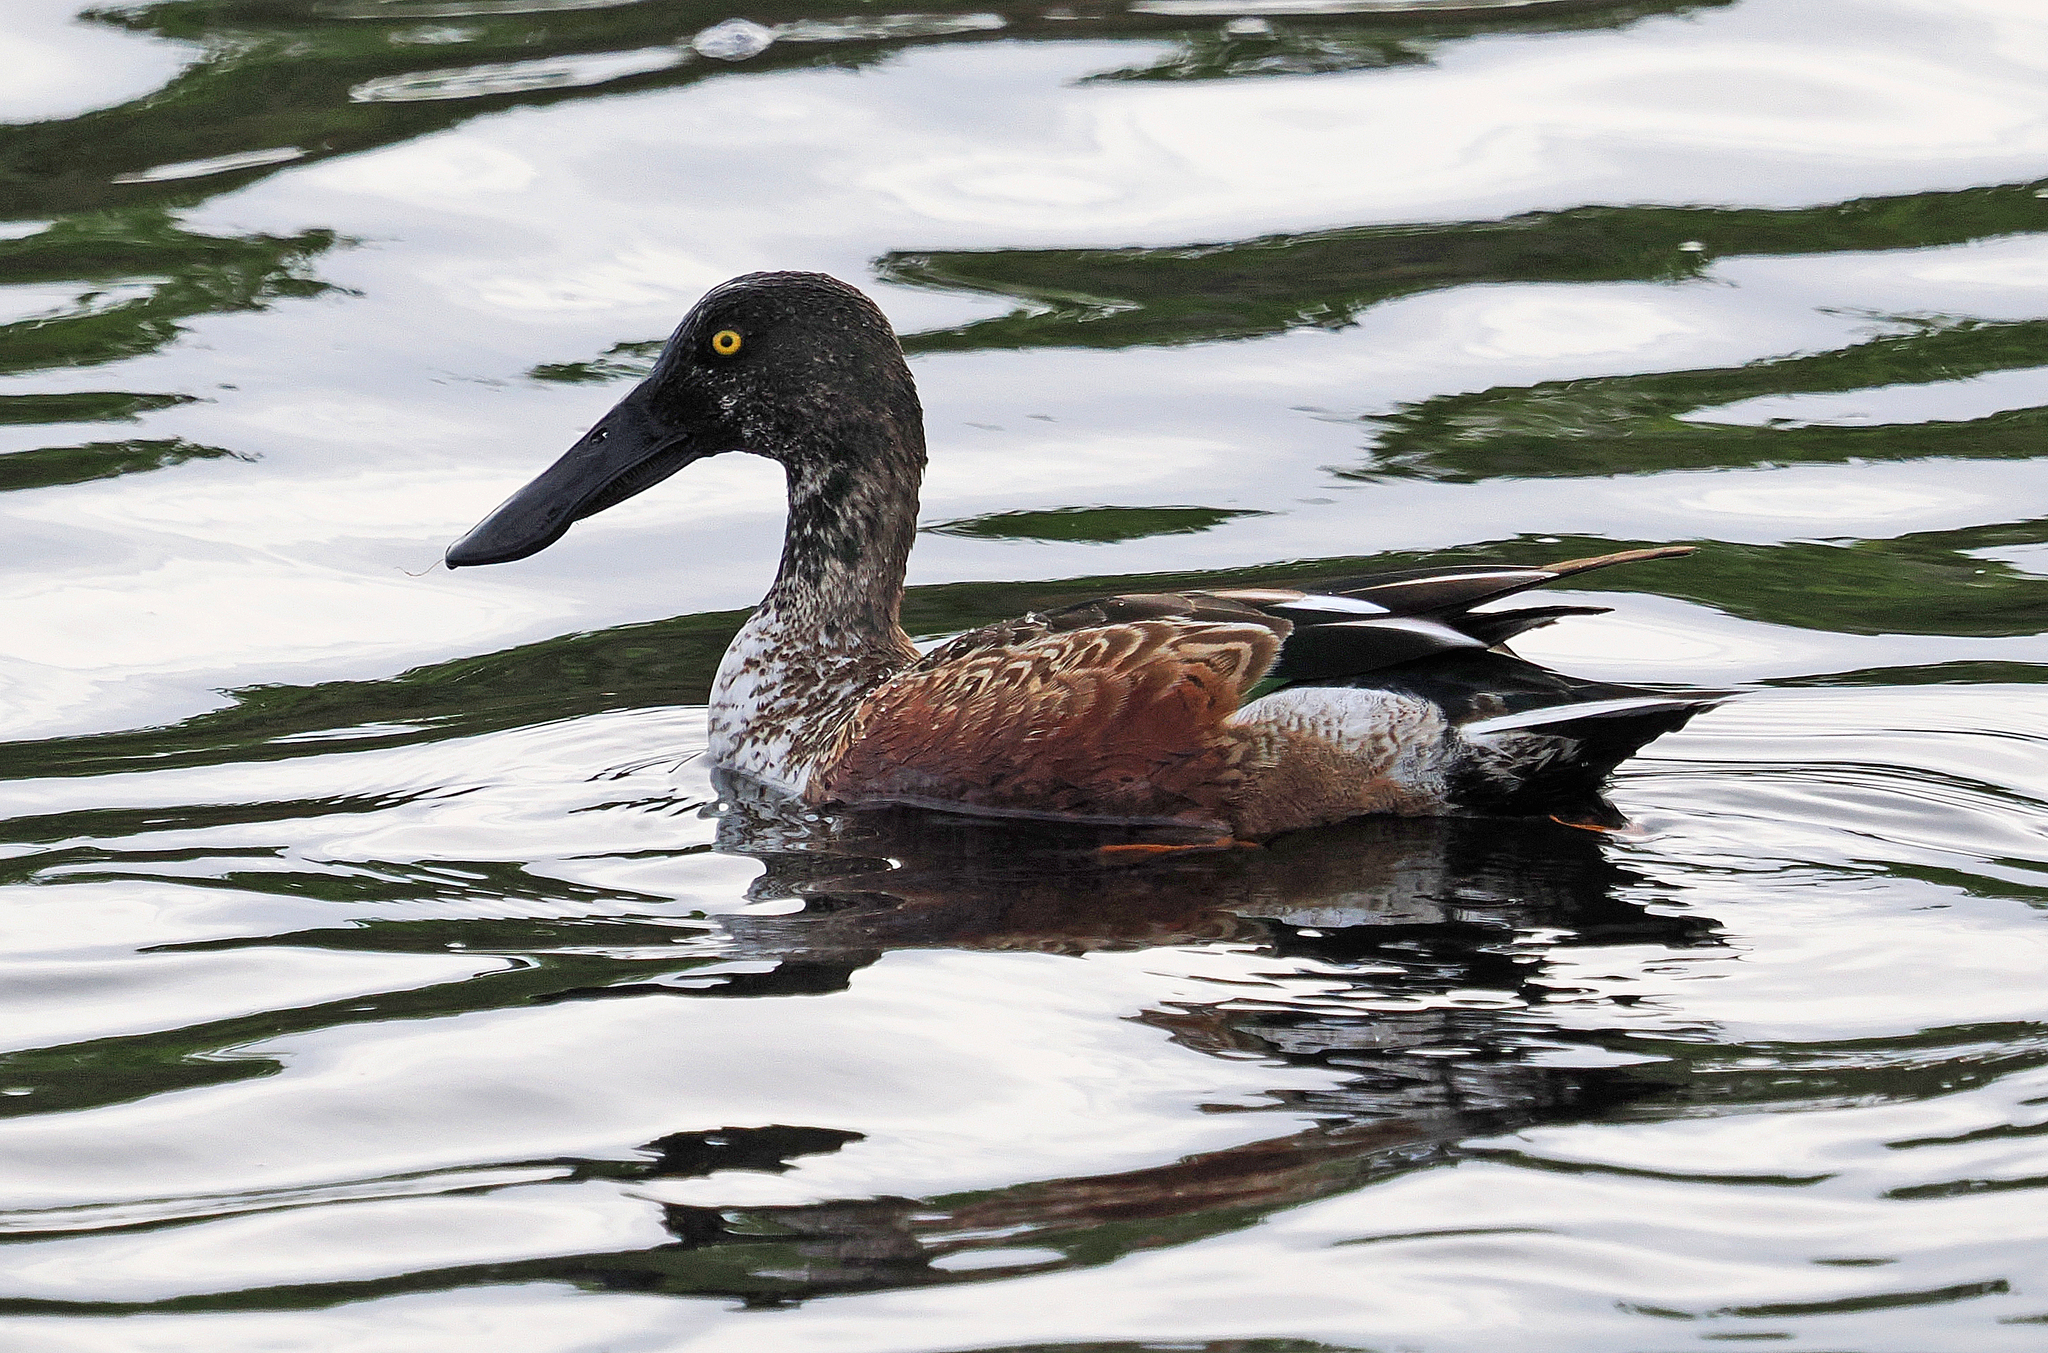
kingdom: Animalia
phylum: Chordata
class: Aves
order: Anseriformes
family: Anatidae
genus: Spatula
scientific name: Spatula clypeata
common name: Northern shoveler
